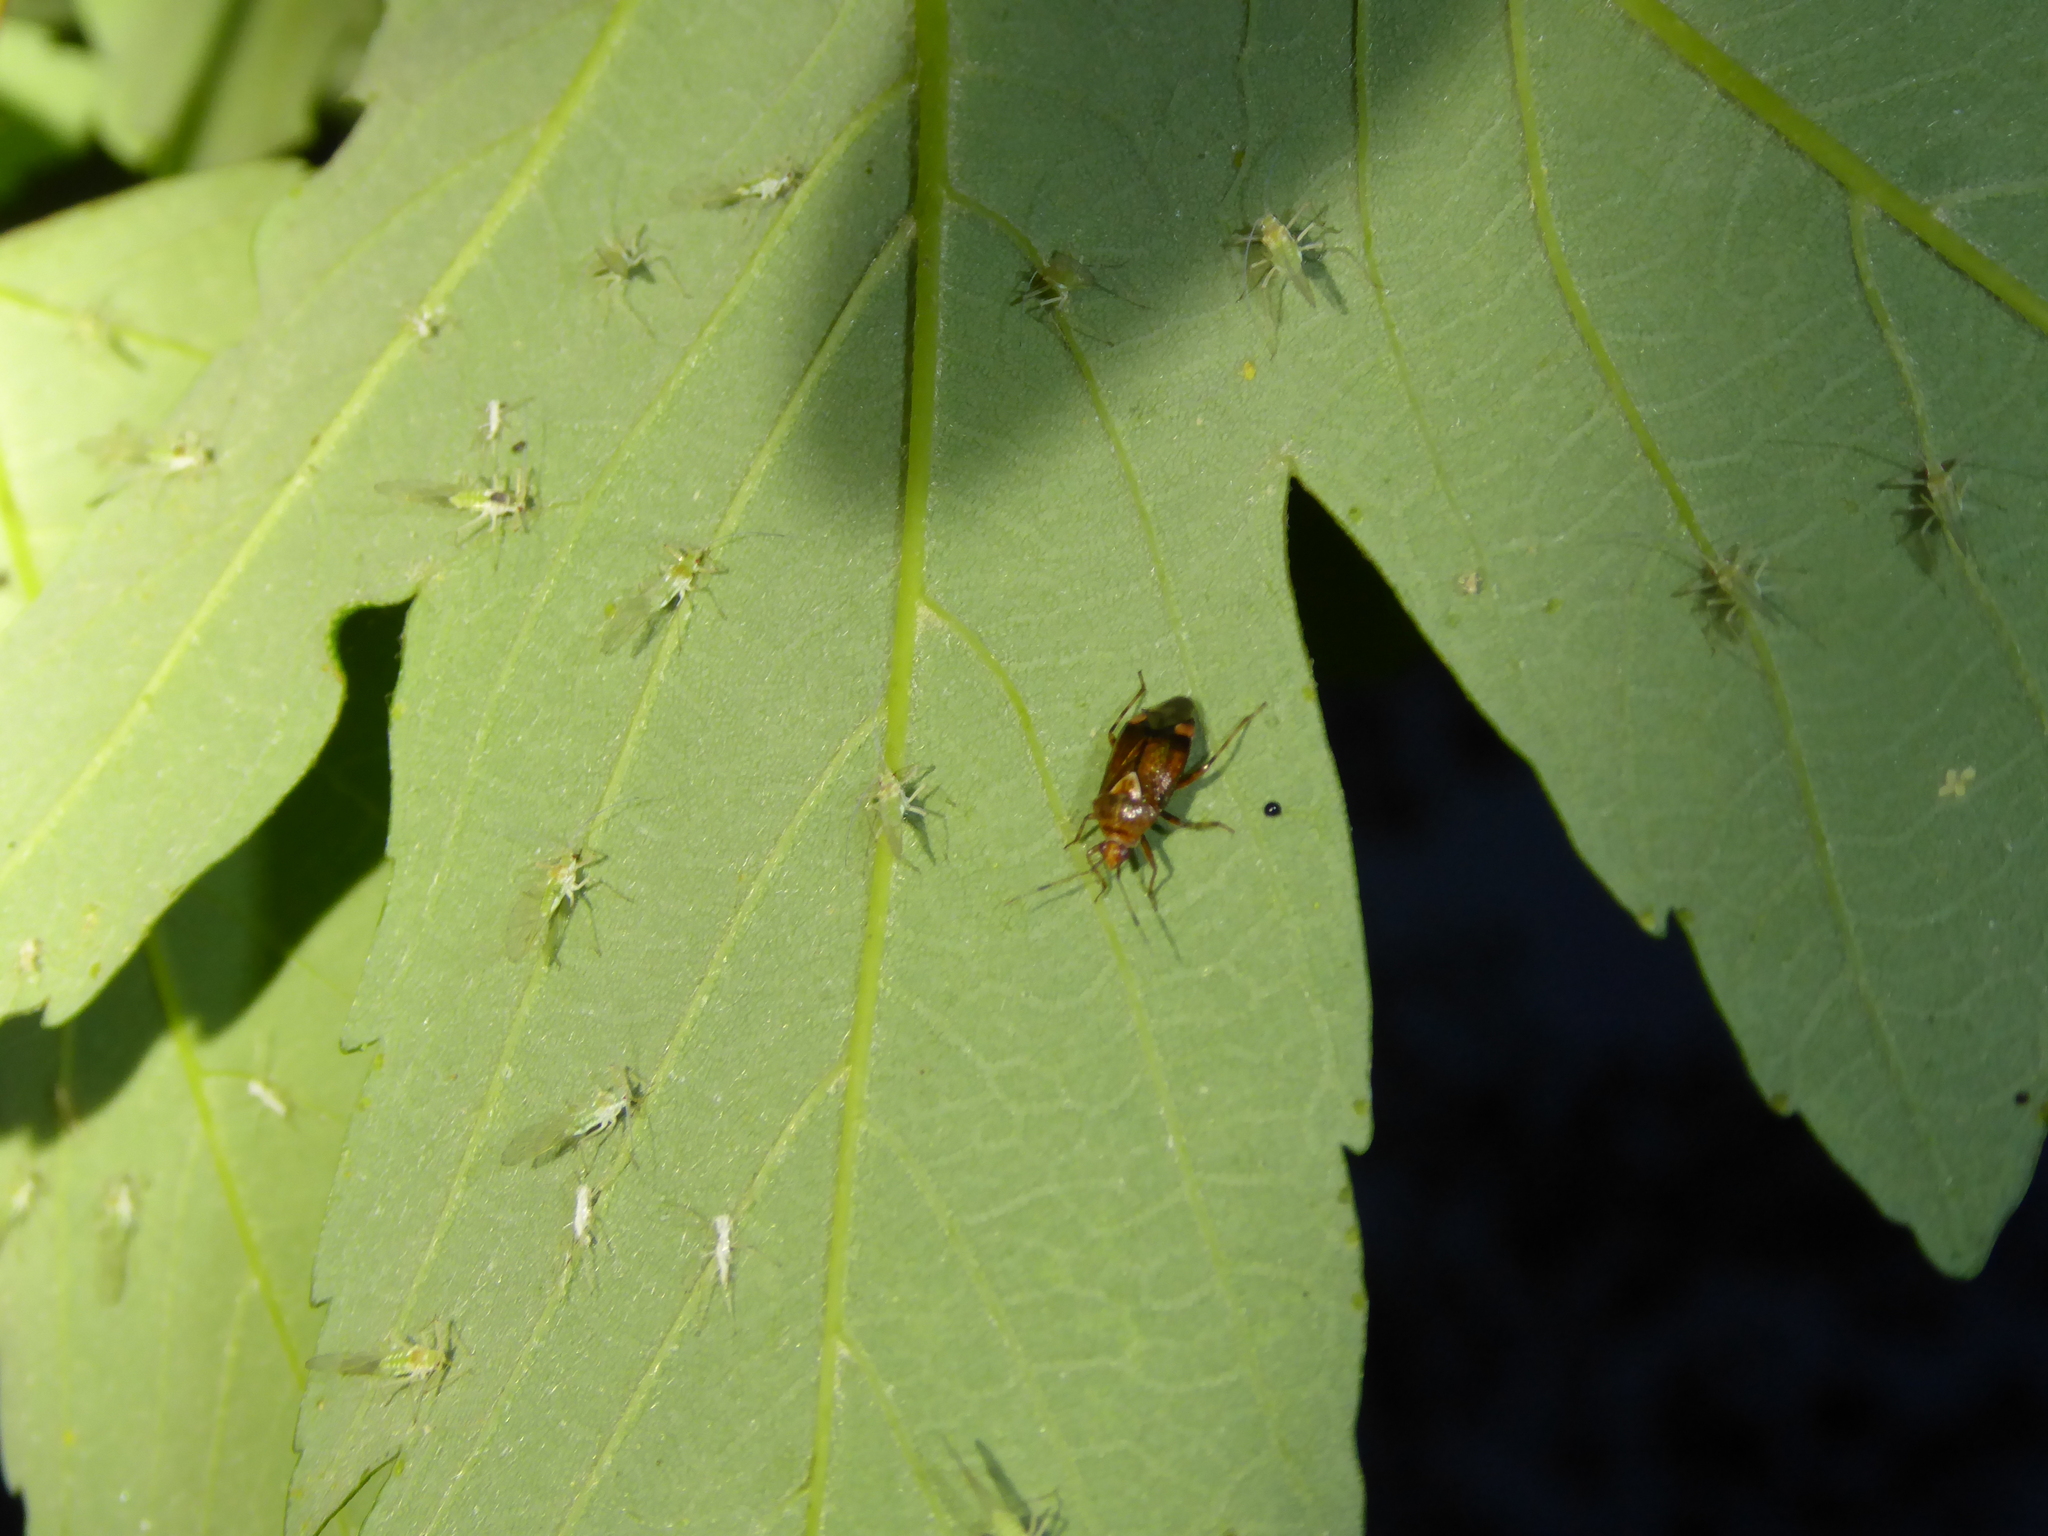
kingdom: Animalia
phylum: Arthropoda
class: Insecta
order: Hemiptera
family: Miridae
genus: Deraeocoris
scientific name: Deraeocoris flavilinea
